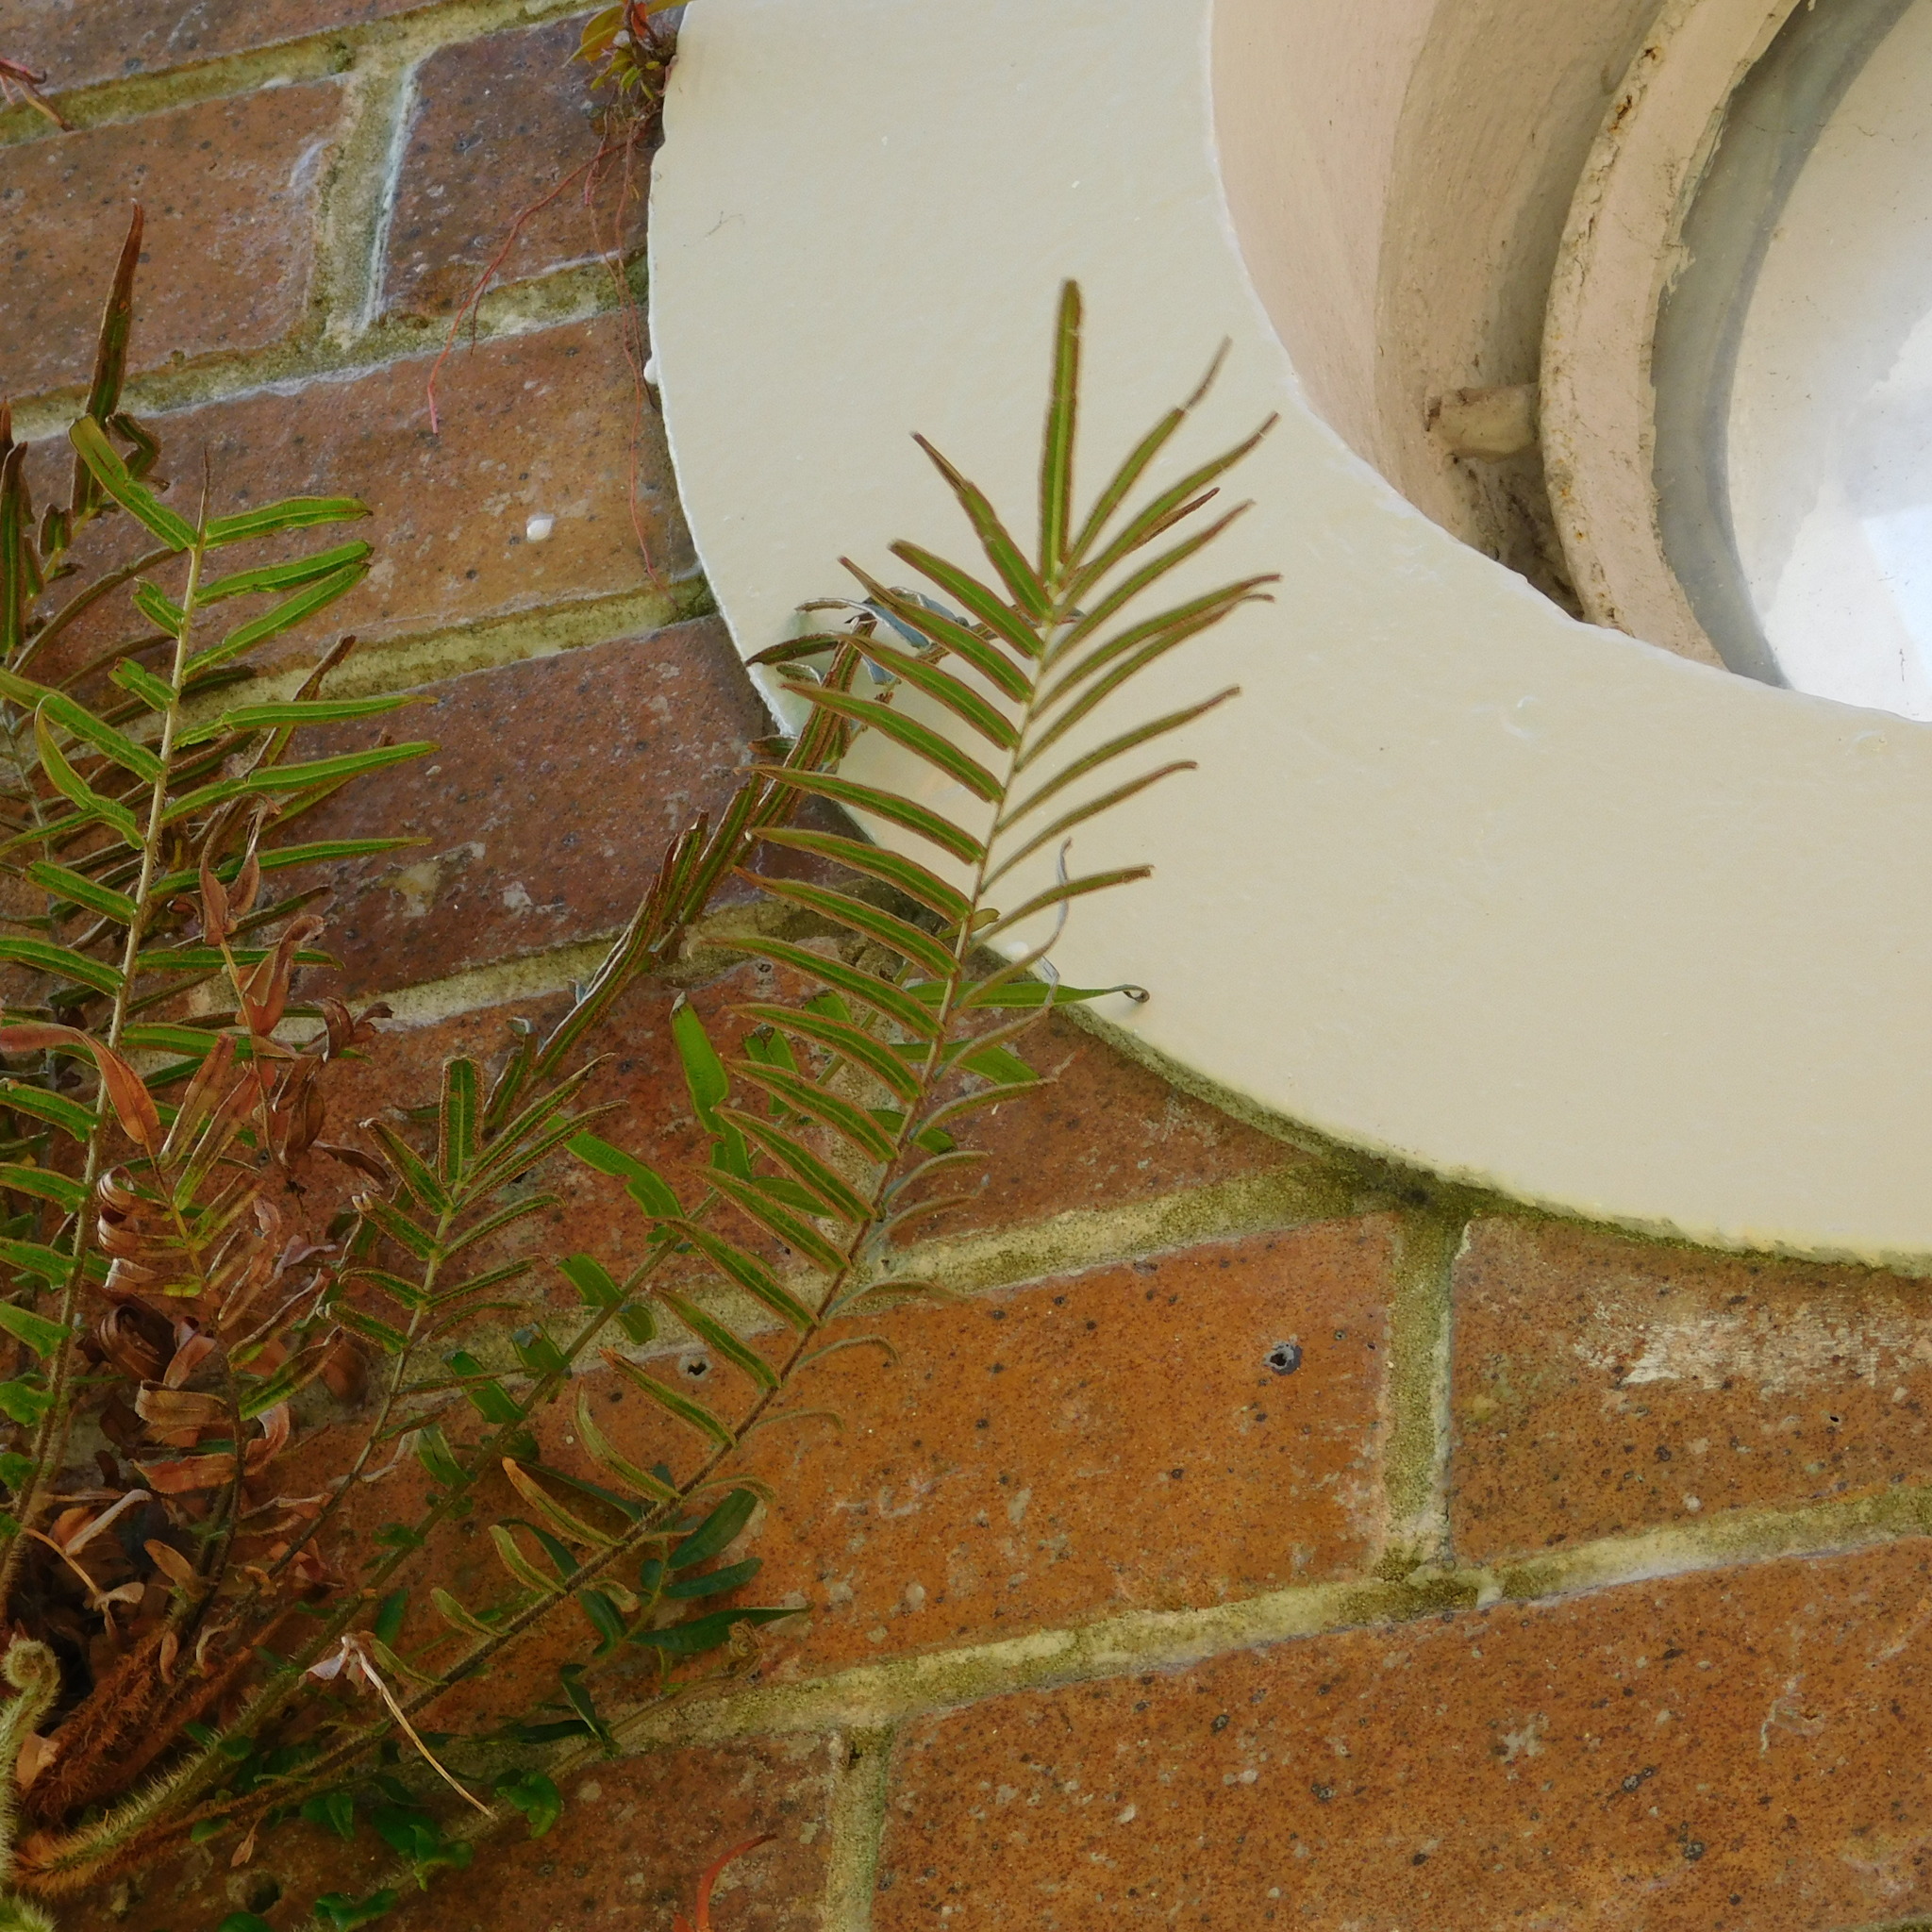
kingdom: Plantae
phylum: Tracheophyta
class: Polypodiopsida
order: Polypodiales
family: Pteridaceae
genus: Pteris
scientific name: Pteris vittata
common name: Ladder brake
